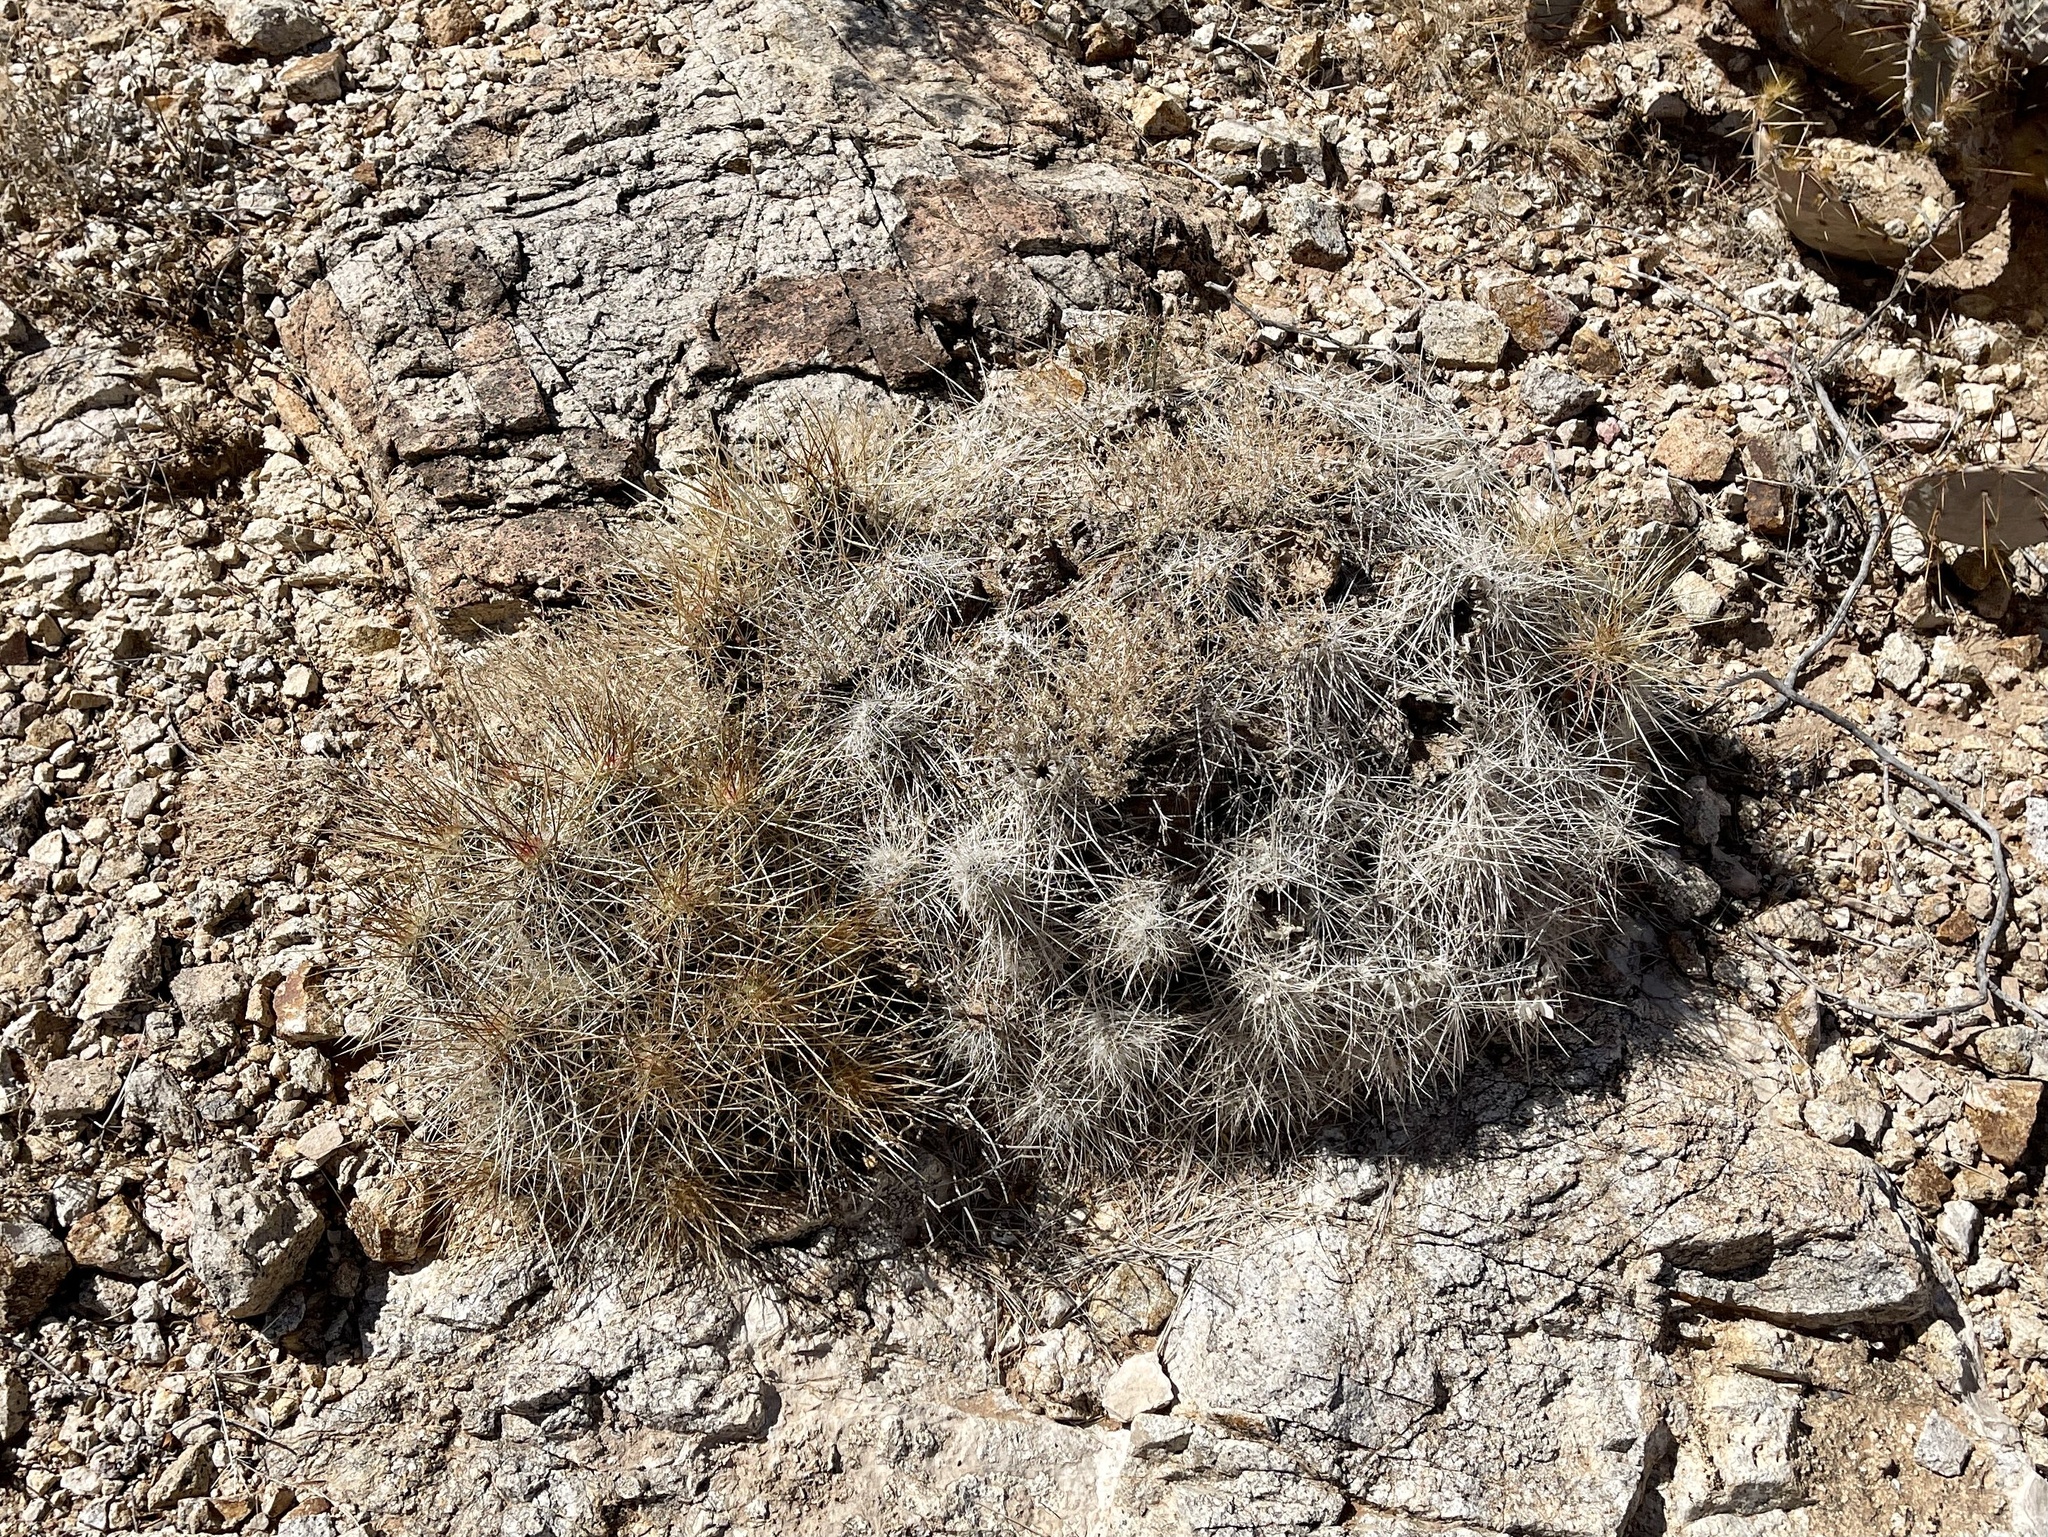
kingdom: Plantae
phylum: Tracheophyta
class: Magnoliopsida
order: Caryophyllales
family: Cactaceae
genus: Echinocereus
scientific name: Echinocereus stramineus
